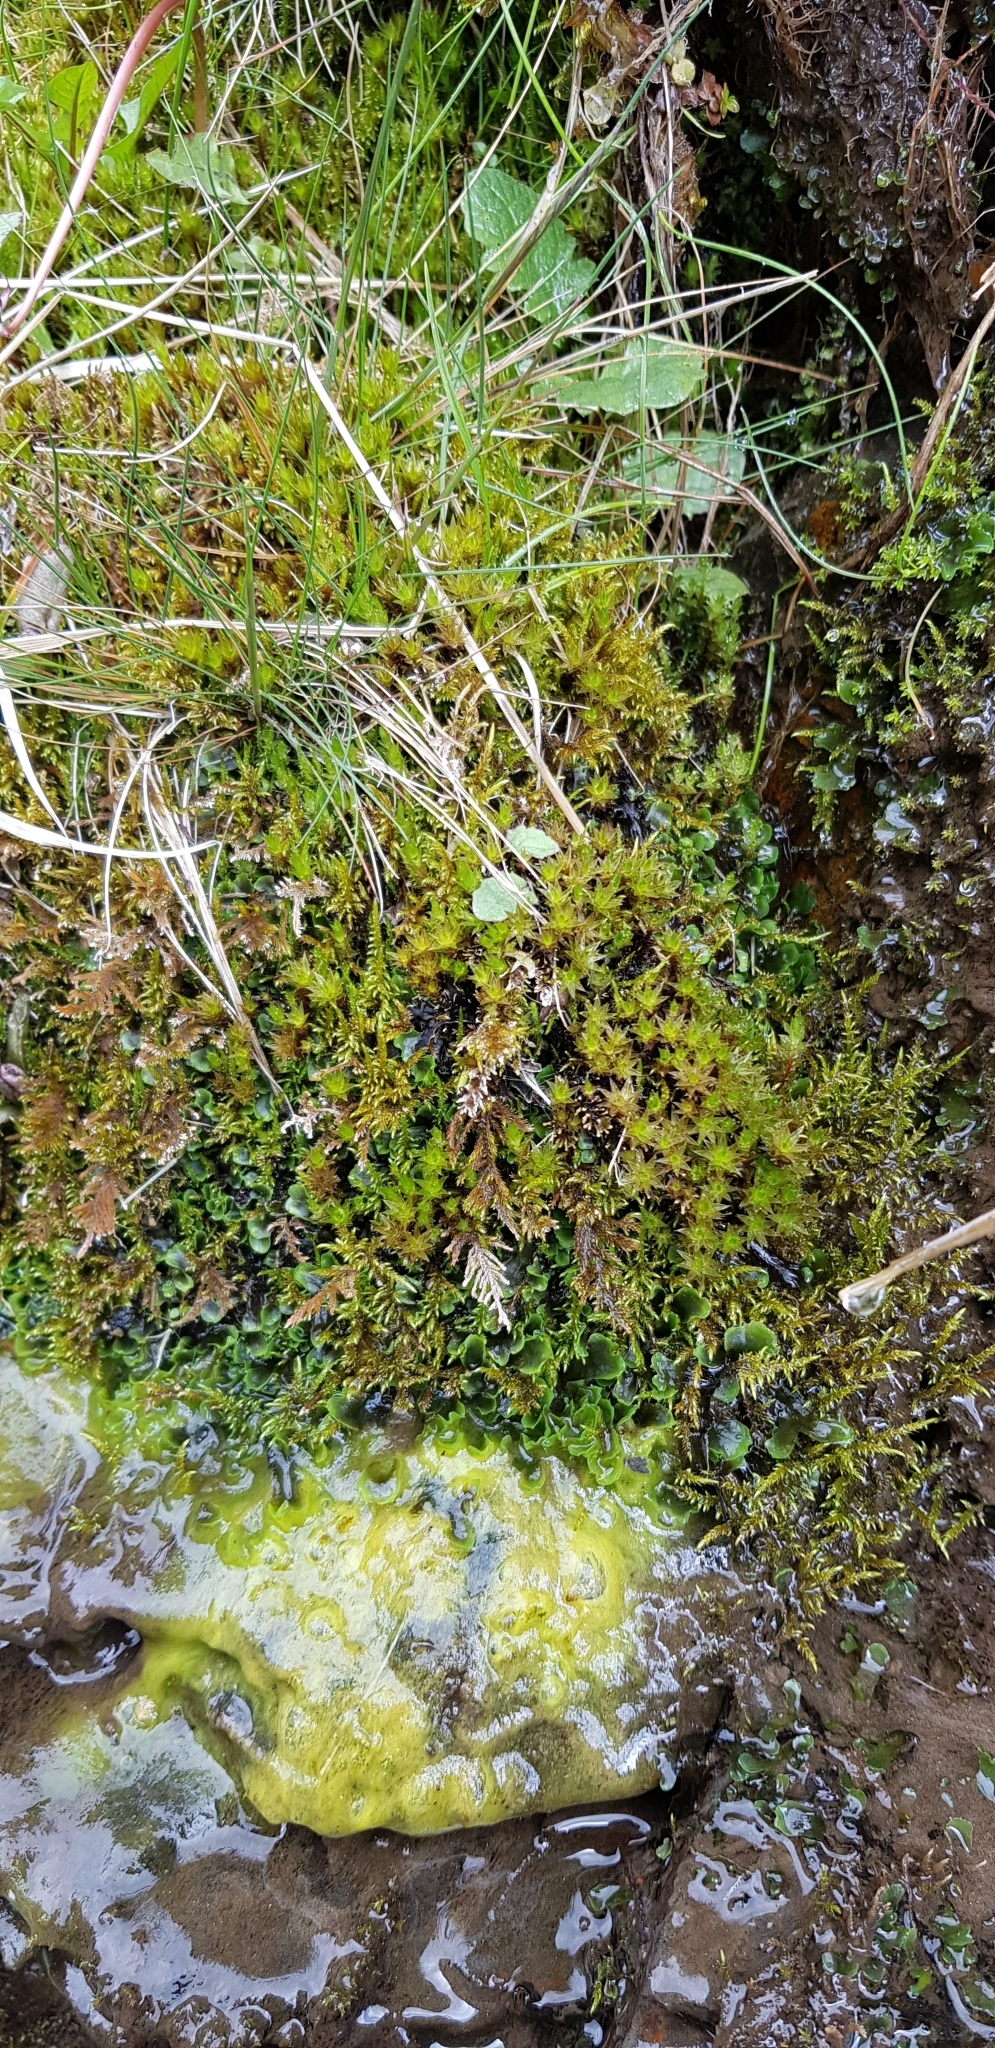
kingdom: Plantae
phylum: Bryophyta
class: Bryopsida
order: Bryales
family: Bryaceae
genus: Ptychostomum
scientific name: Ptychostomum pseudotriquetrum
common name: Long-leaved thread moss
